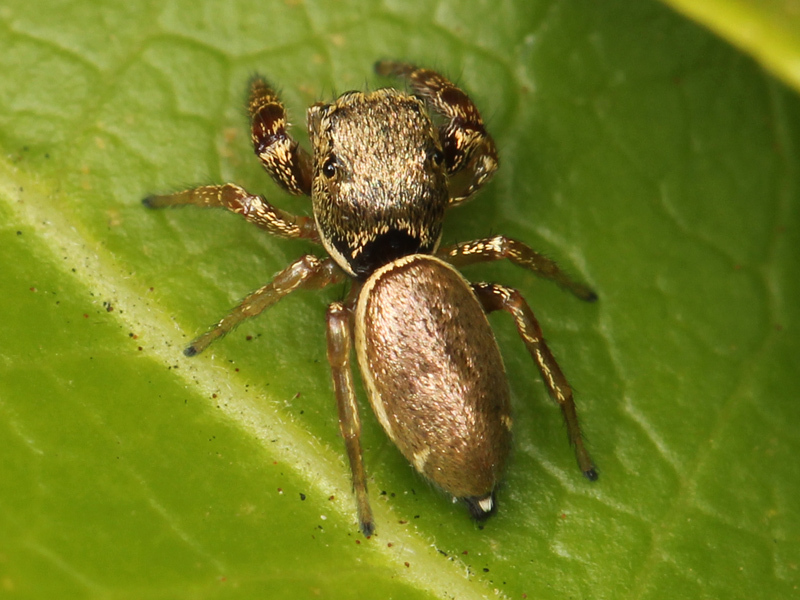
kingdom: Animalia
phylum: Arthropoda
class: Arachnida
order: Araneae
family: Salticidae
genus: Sassacus
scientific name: Sassacus vitis
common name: Jumping spiders
